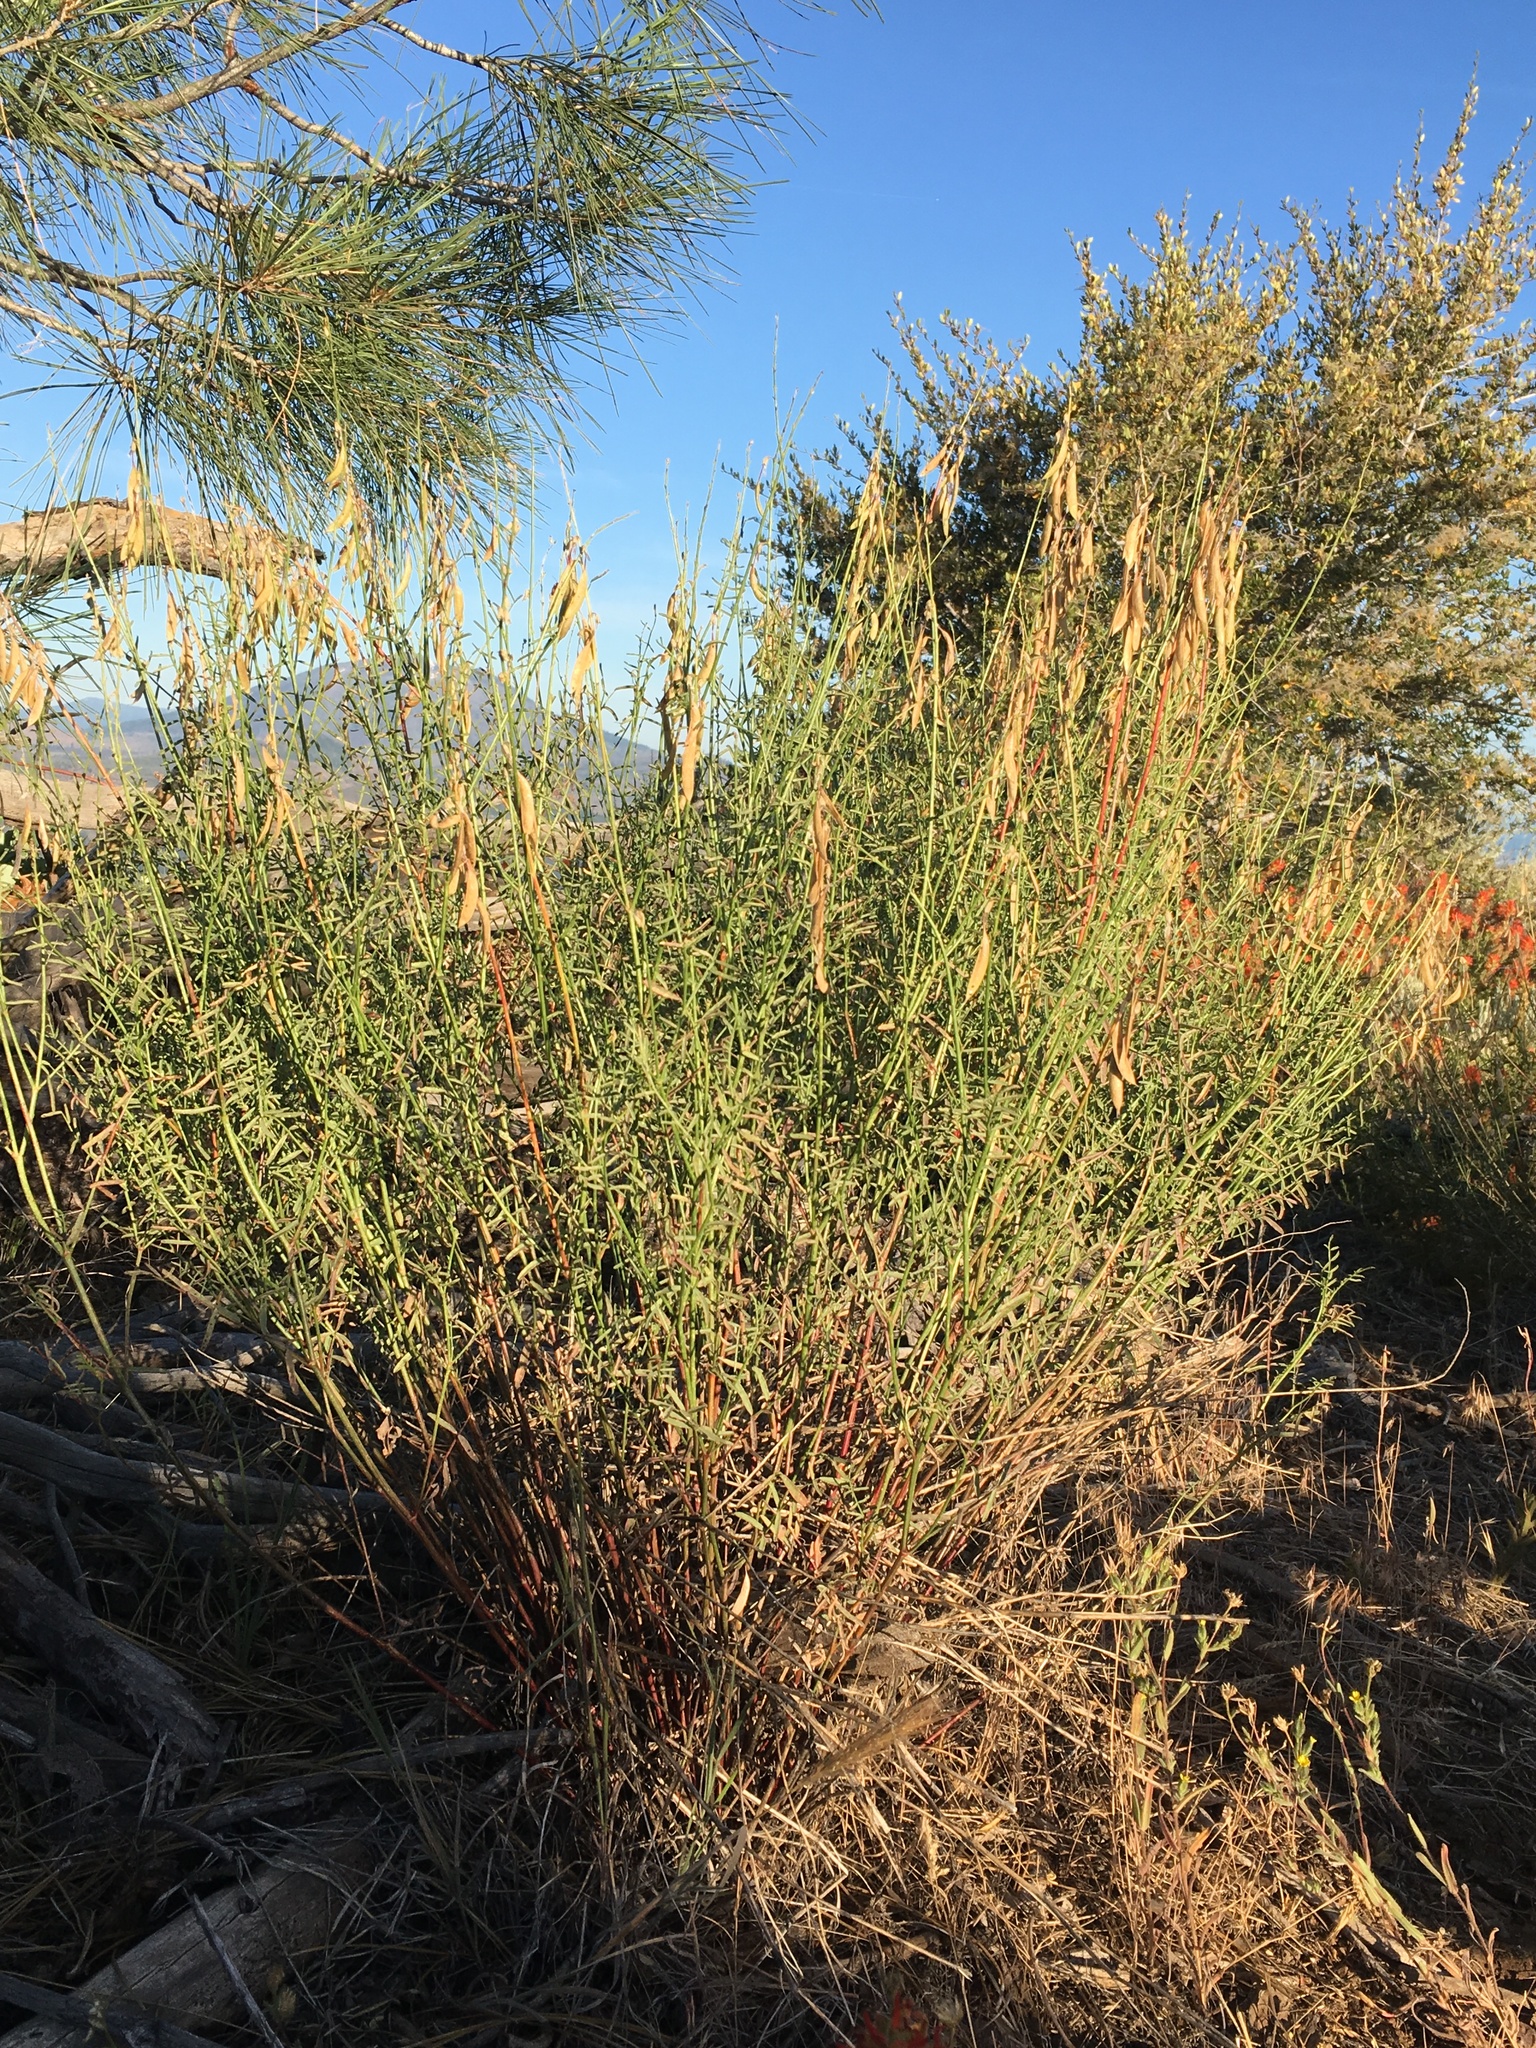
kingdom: Plantae
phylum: Tracheophyta
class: Magnoliopsida
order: Fabales
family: Fabaceae
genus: Astragalus
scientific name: Astragalus filipes
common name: Basalt milk-vetch
